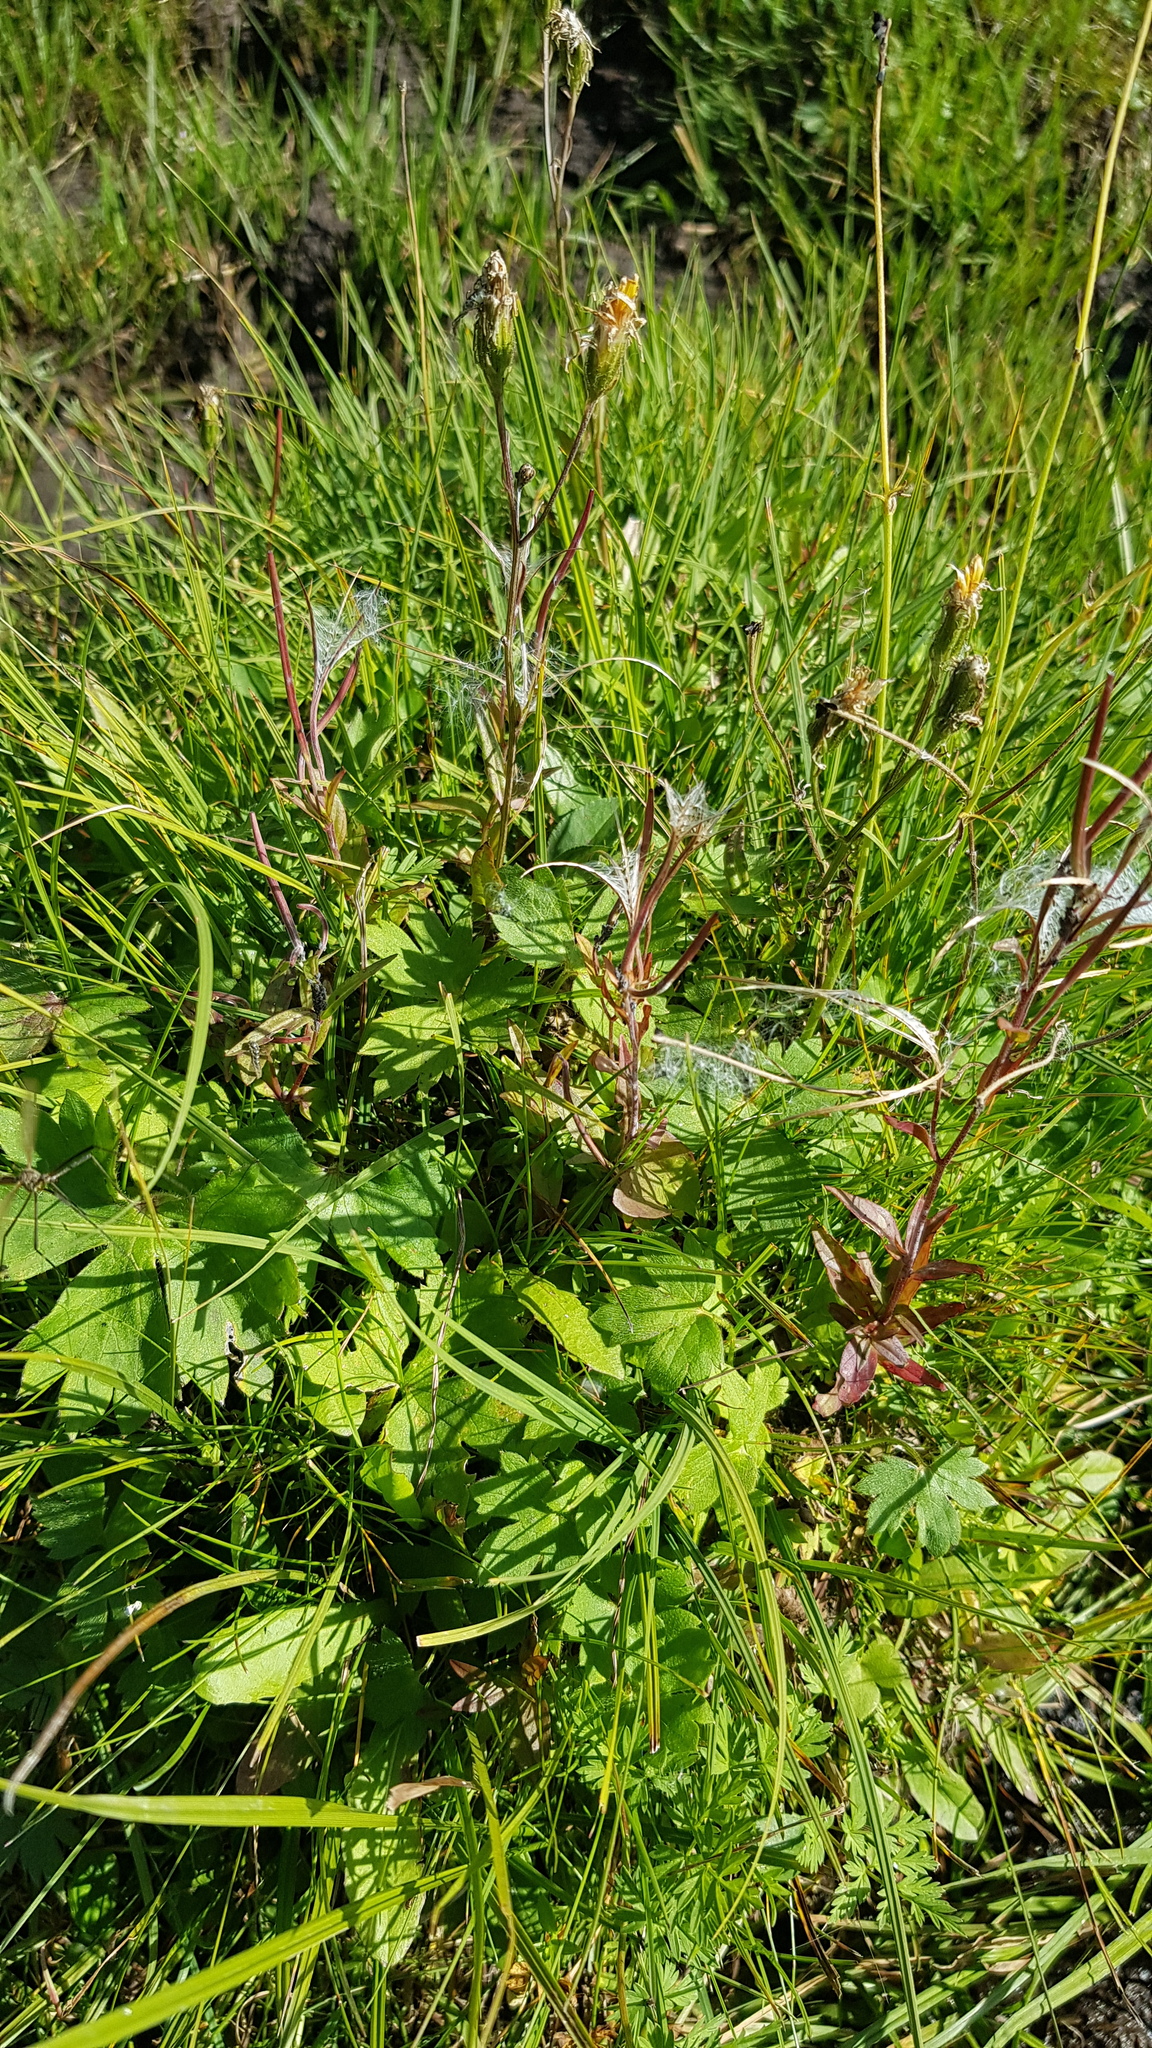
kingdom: Plantae
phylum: Tracheophyta
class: Magnoliopsida
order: Myrtales
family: Onagraceae
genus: Epilobium
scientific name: Epilobium palustre
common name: Marsh willowherb
